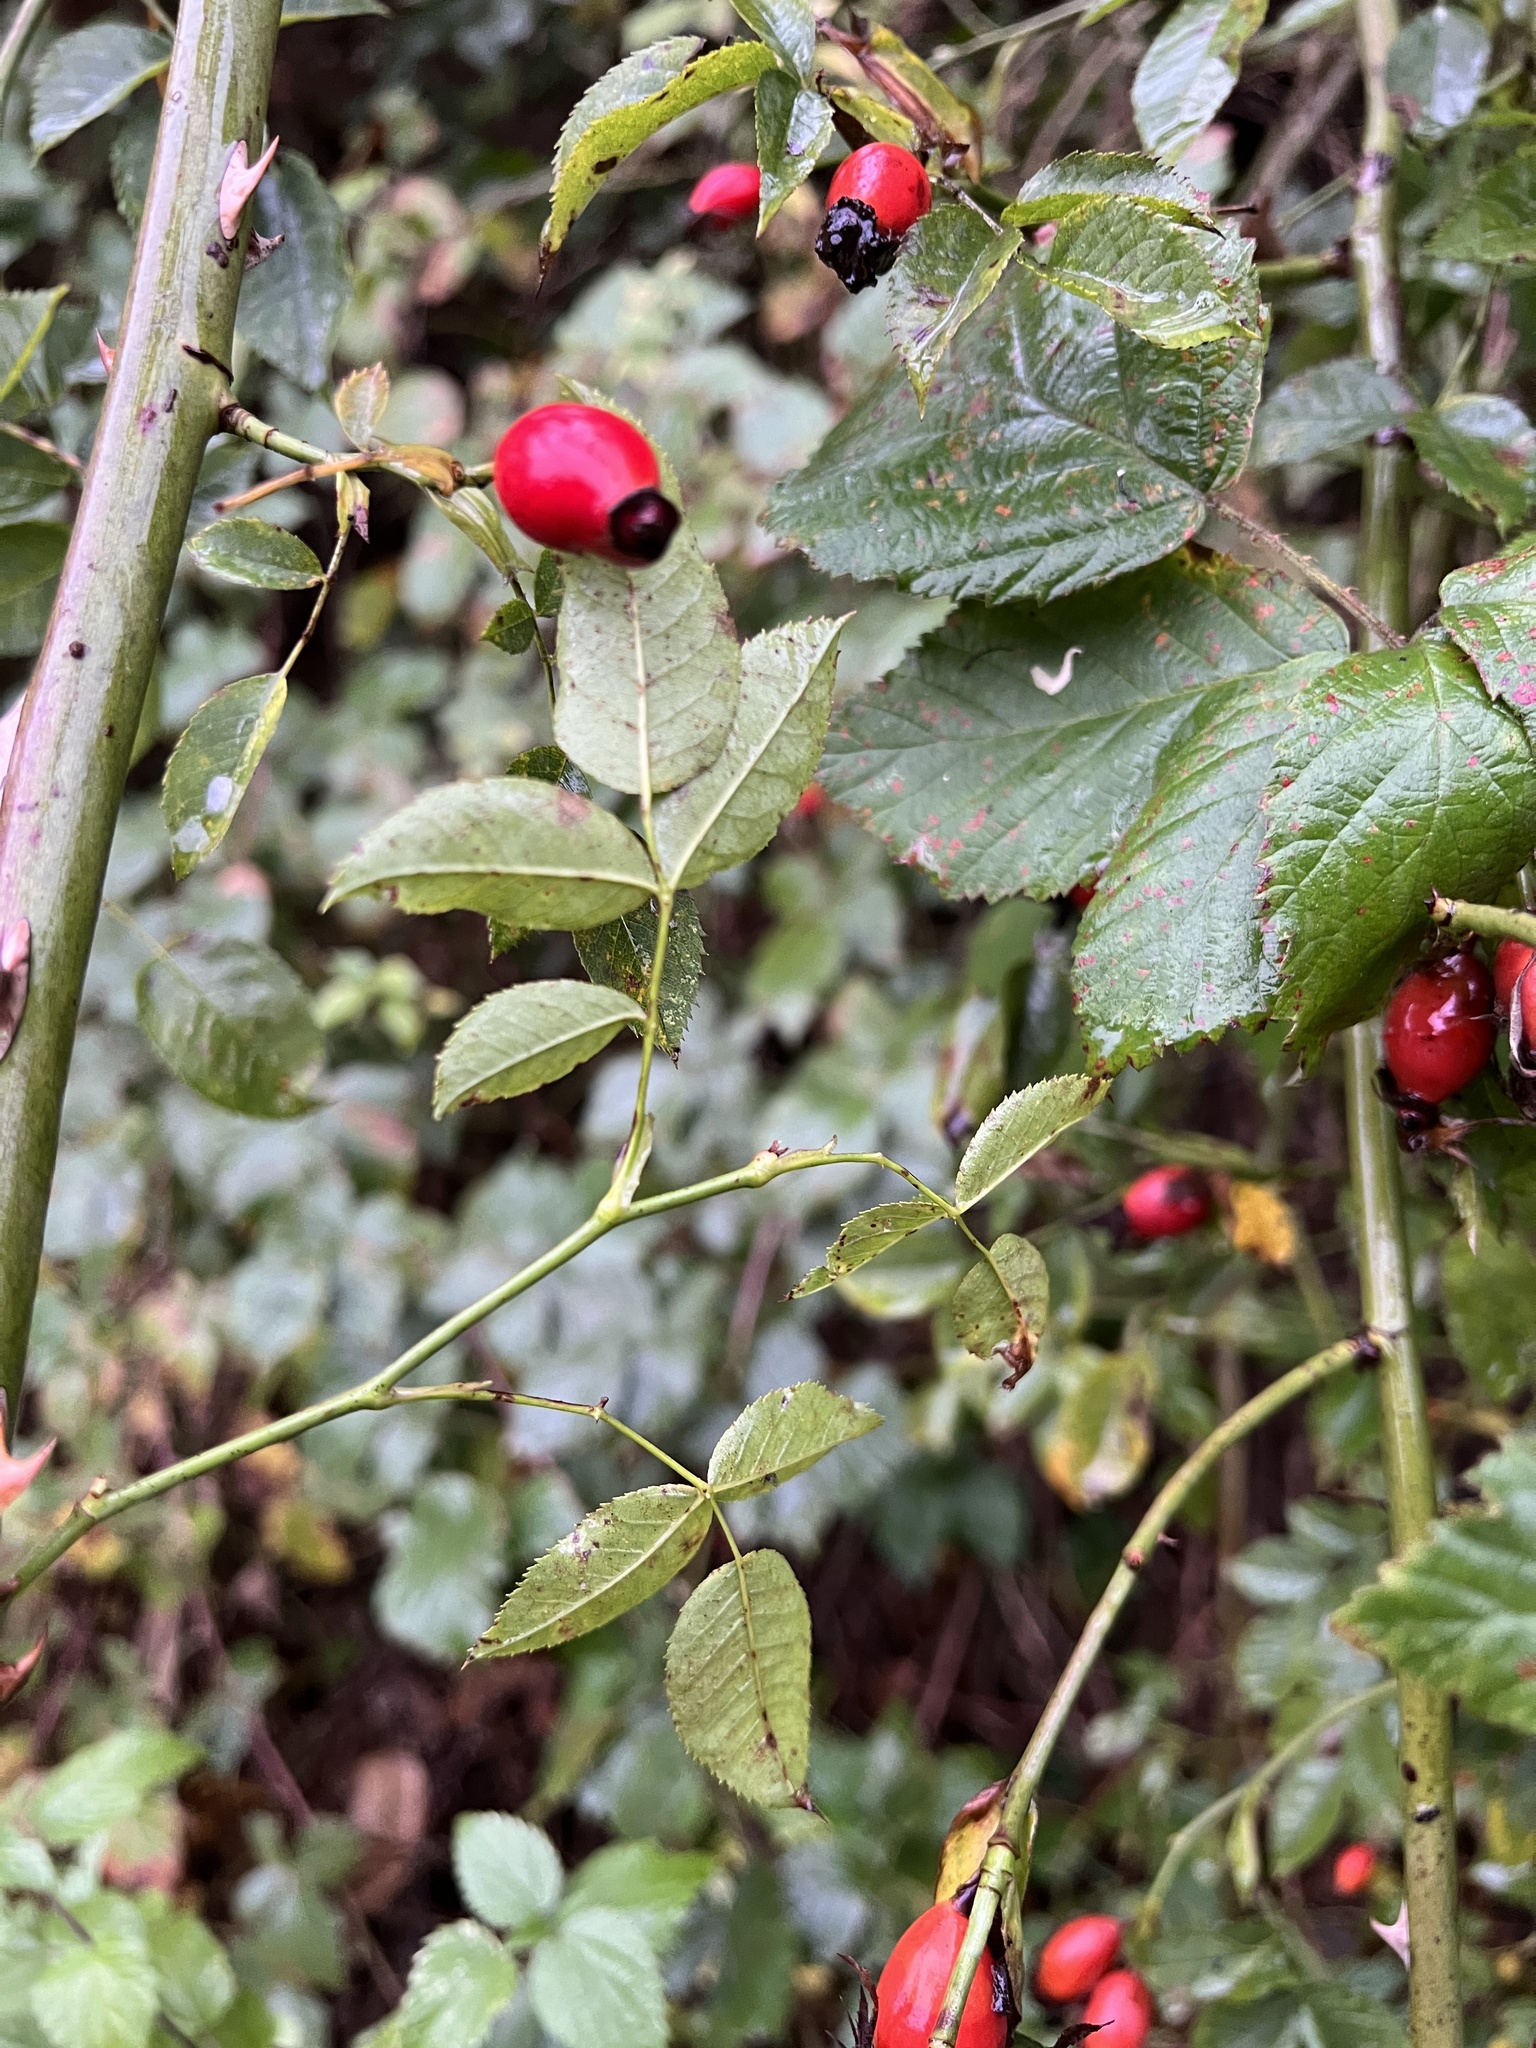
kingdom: Plantae
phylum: Tracheophyta
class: Magnoliopsida
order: Rosales
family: Rosaceae
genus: Rosa
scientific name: Rosa canina
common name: Dog rose
